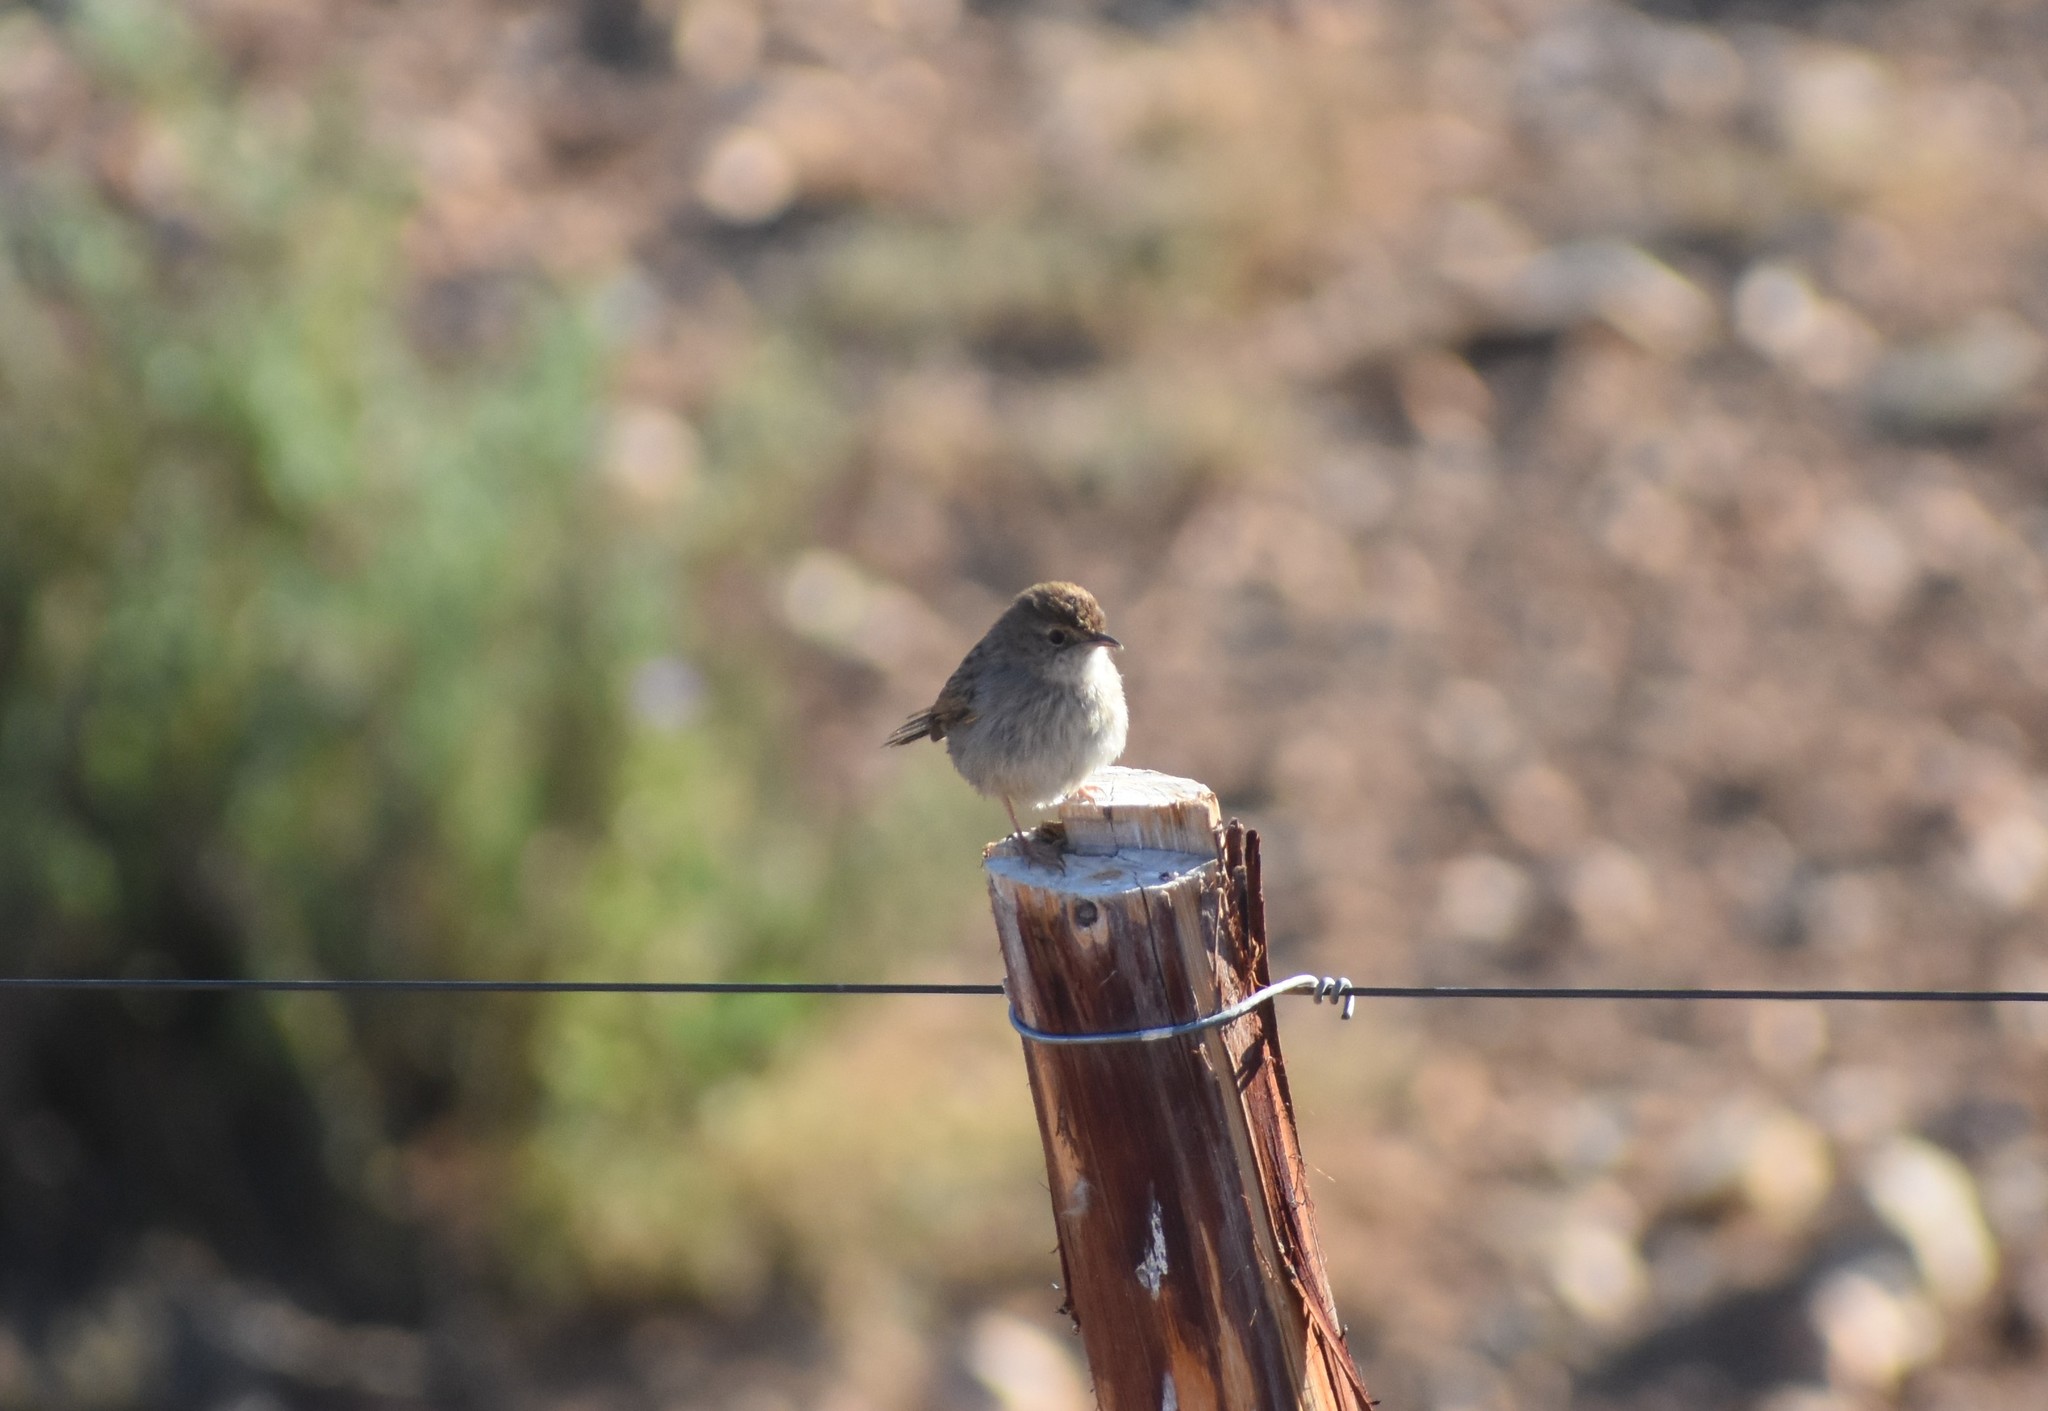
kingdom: Animalia
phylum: Chordata
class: Aves
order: Passeriformes
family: Cisticolidae
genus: Cisticola
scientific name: Cisticola subruficapilla
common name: Grey-backed cisticola
